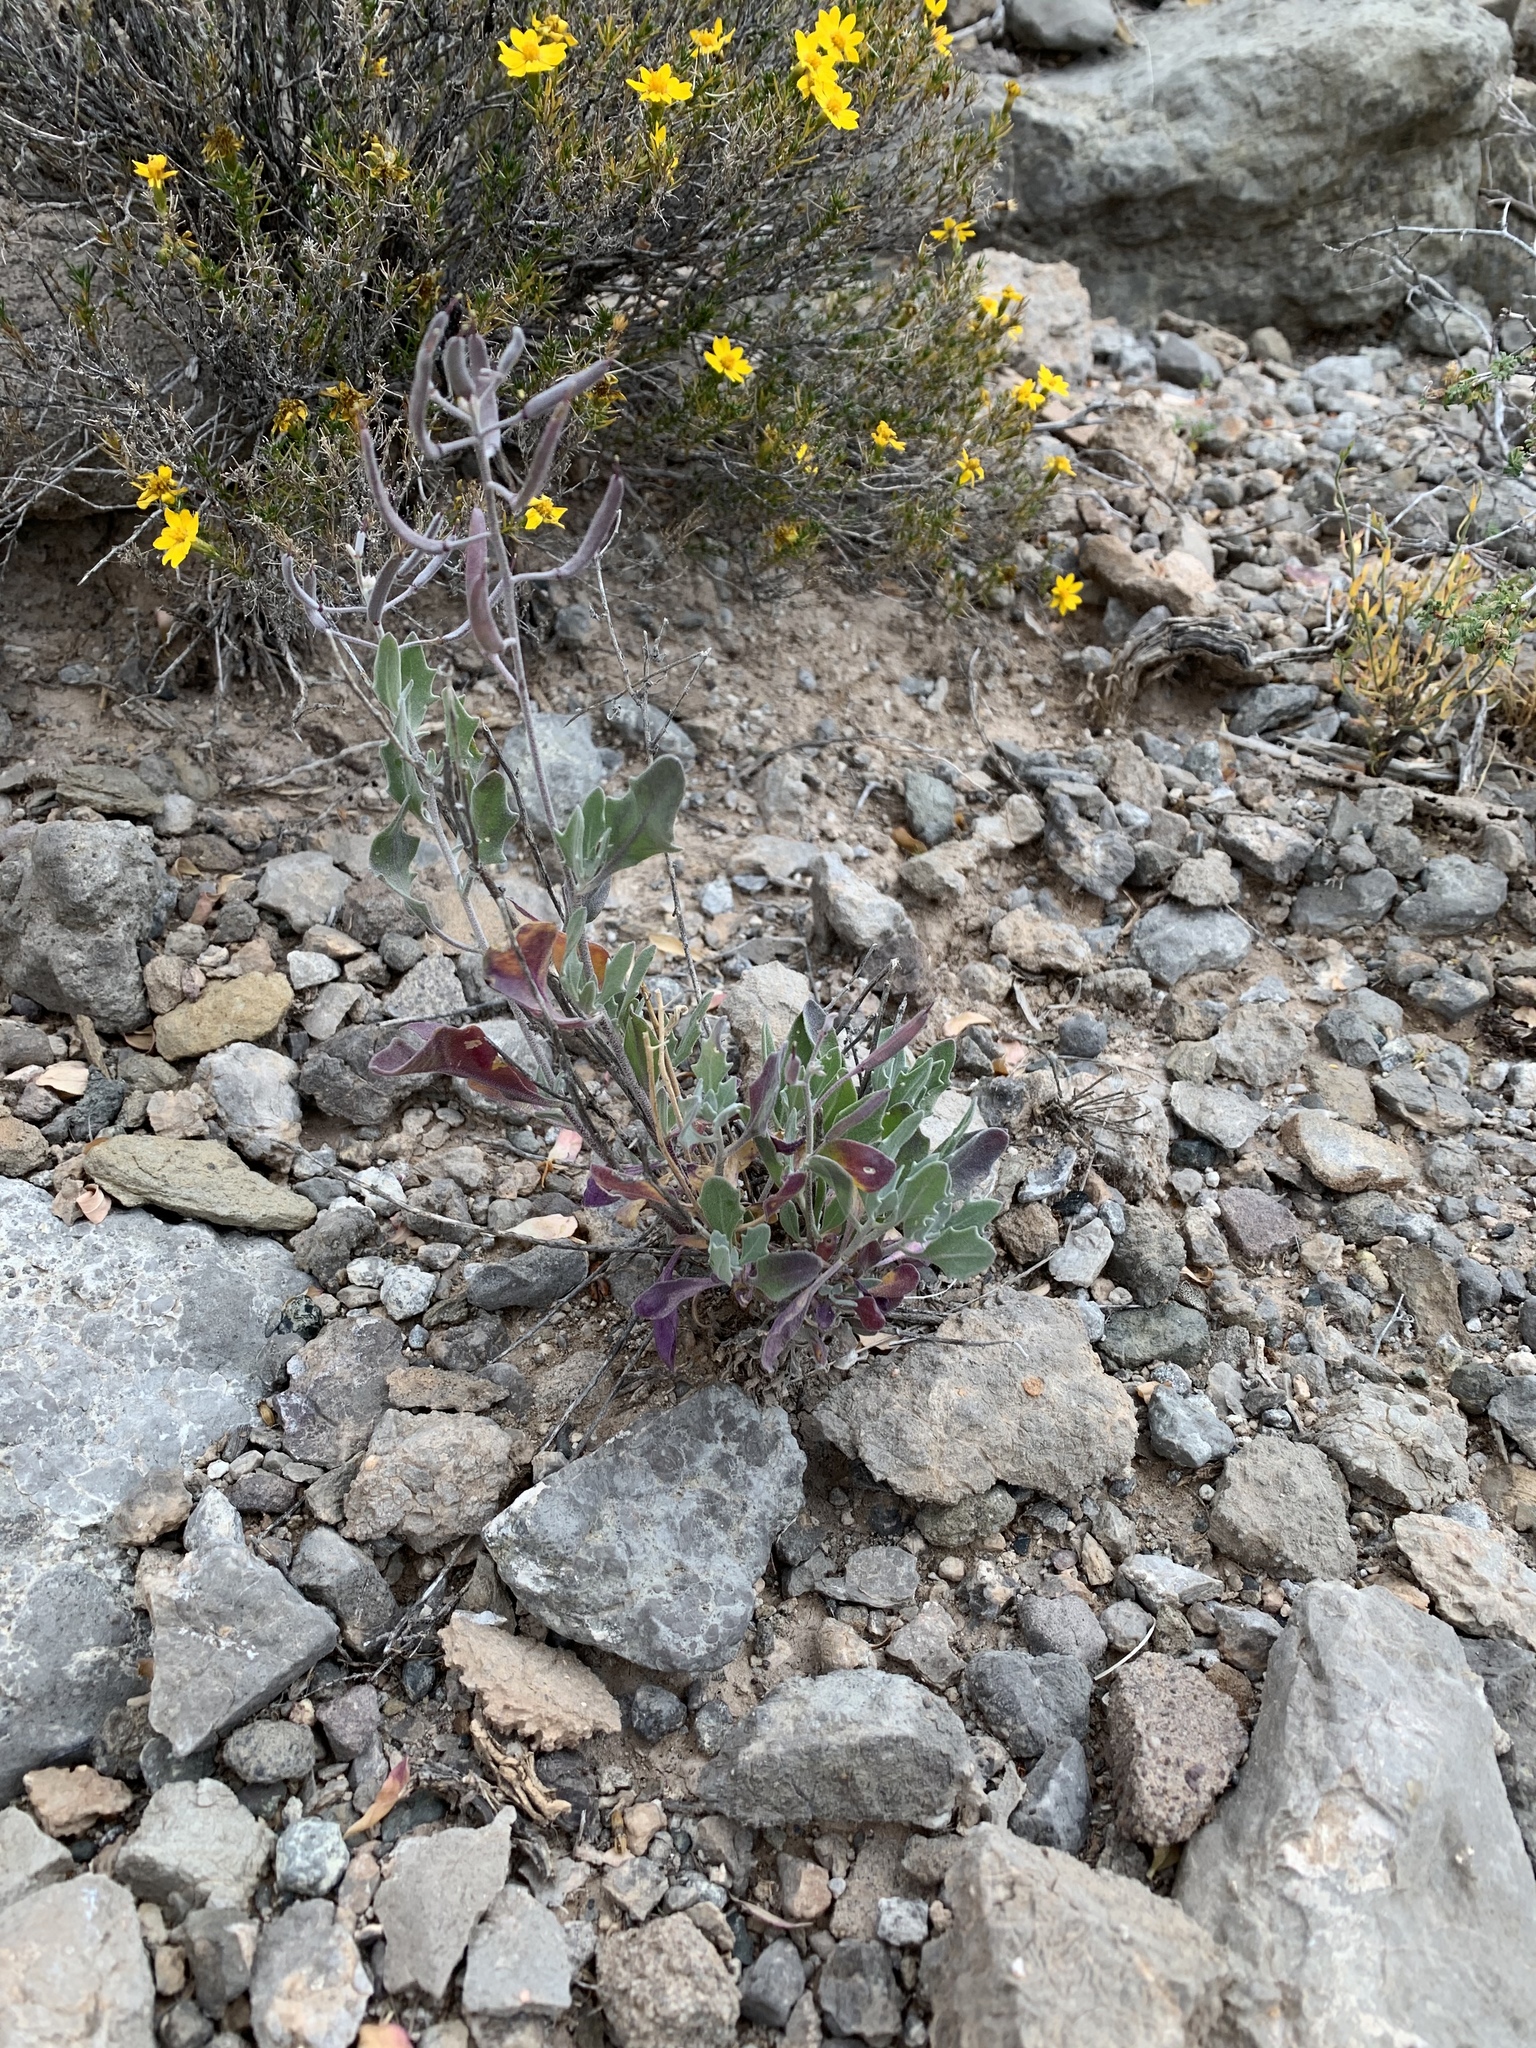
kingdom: Plantae
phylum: Tracheophyta
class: Magnoliopsida
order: Brassicales
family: Brassicaceae
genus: Nerisyrenia
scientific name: Nerisyrenia camporum
